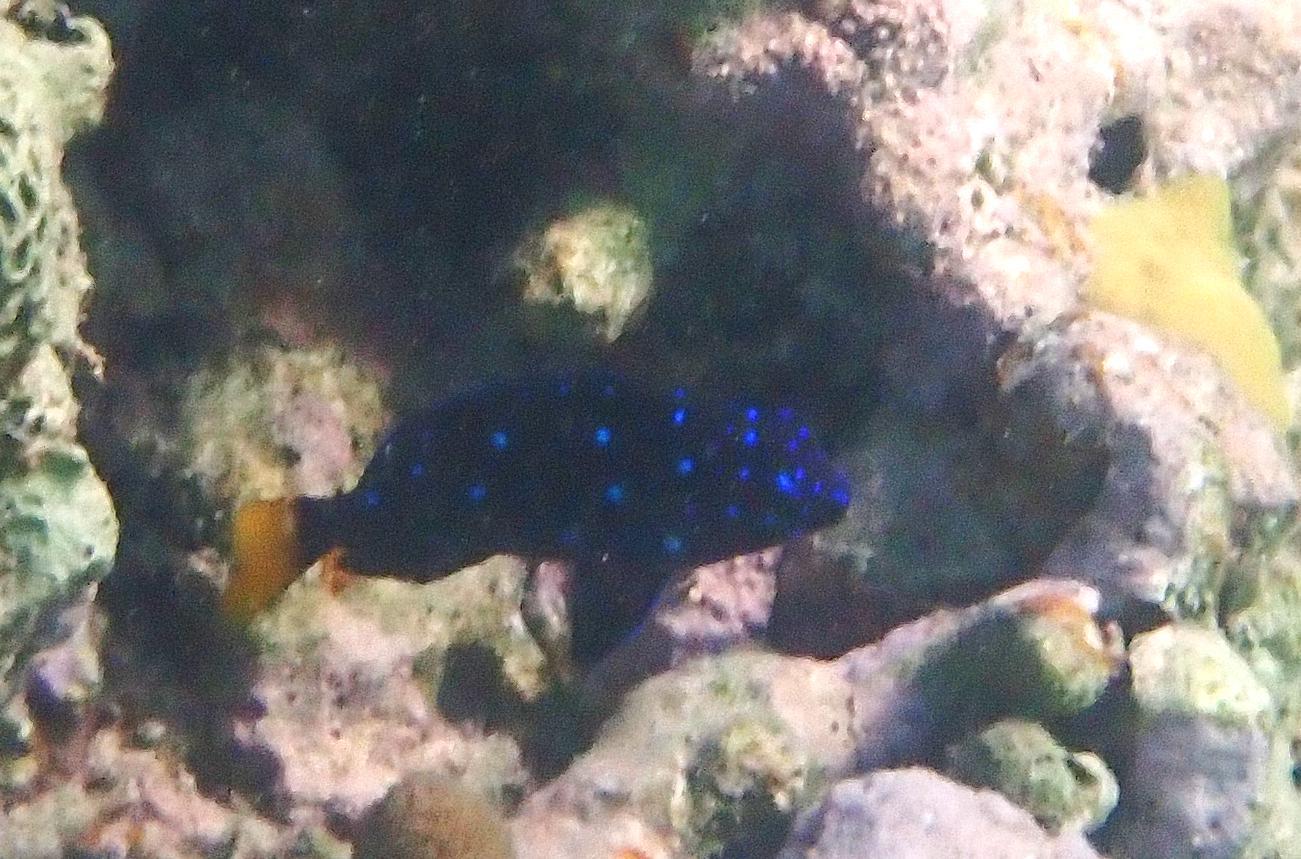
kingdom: Animalia
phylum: Chordata
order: Perciformes
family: Pomacentridae
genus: Microspathodon
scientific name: Microspathodon chrysurus
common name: Yellowtail damselfish
